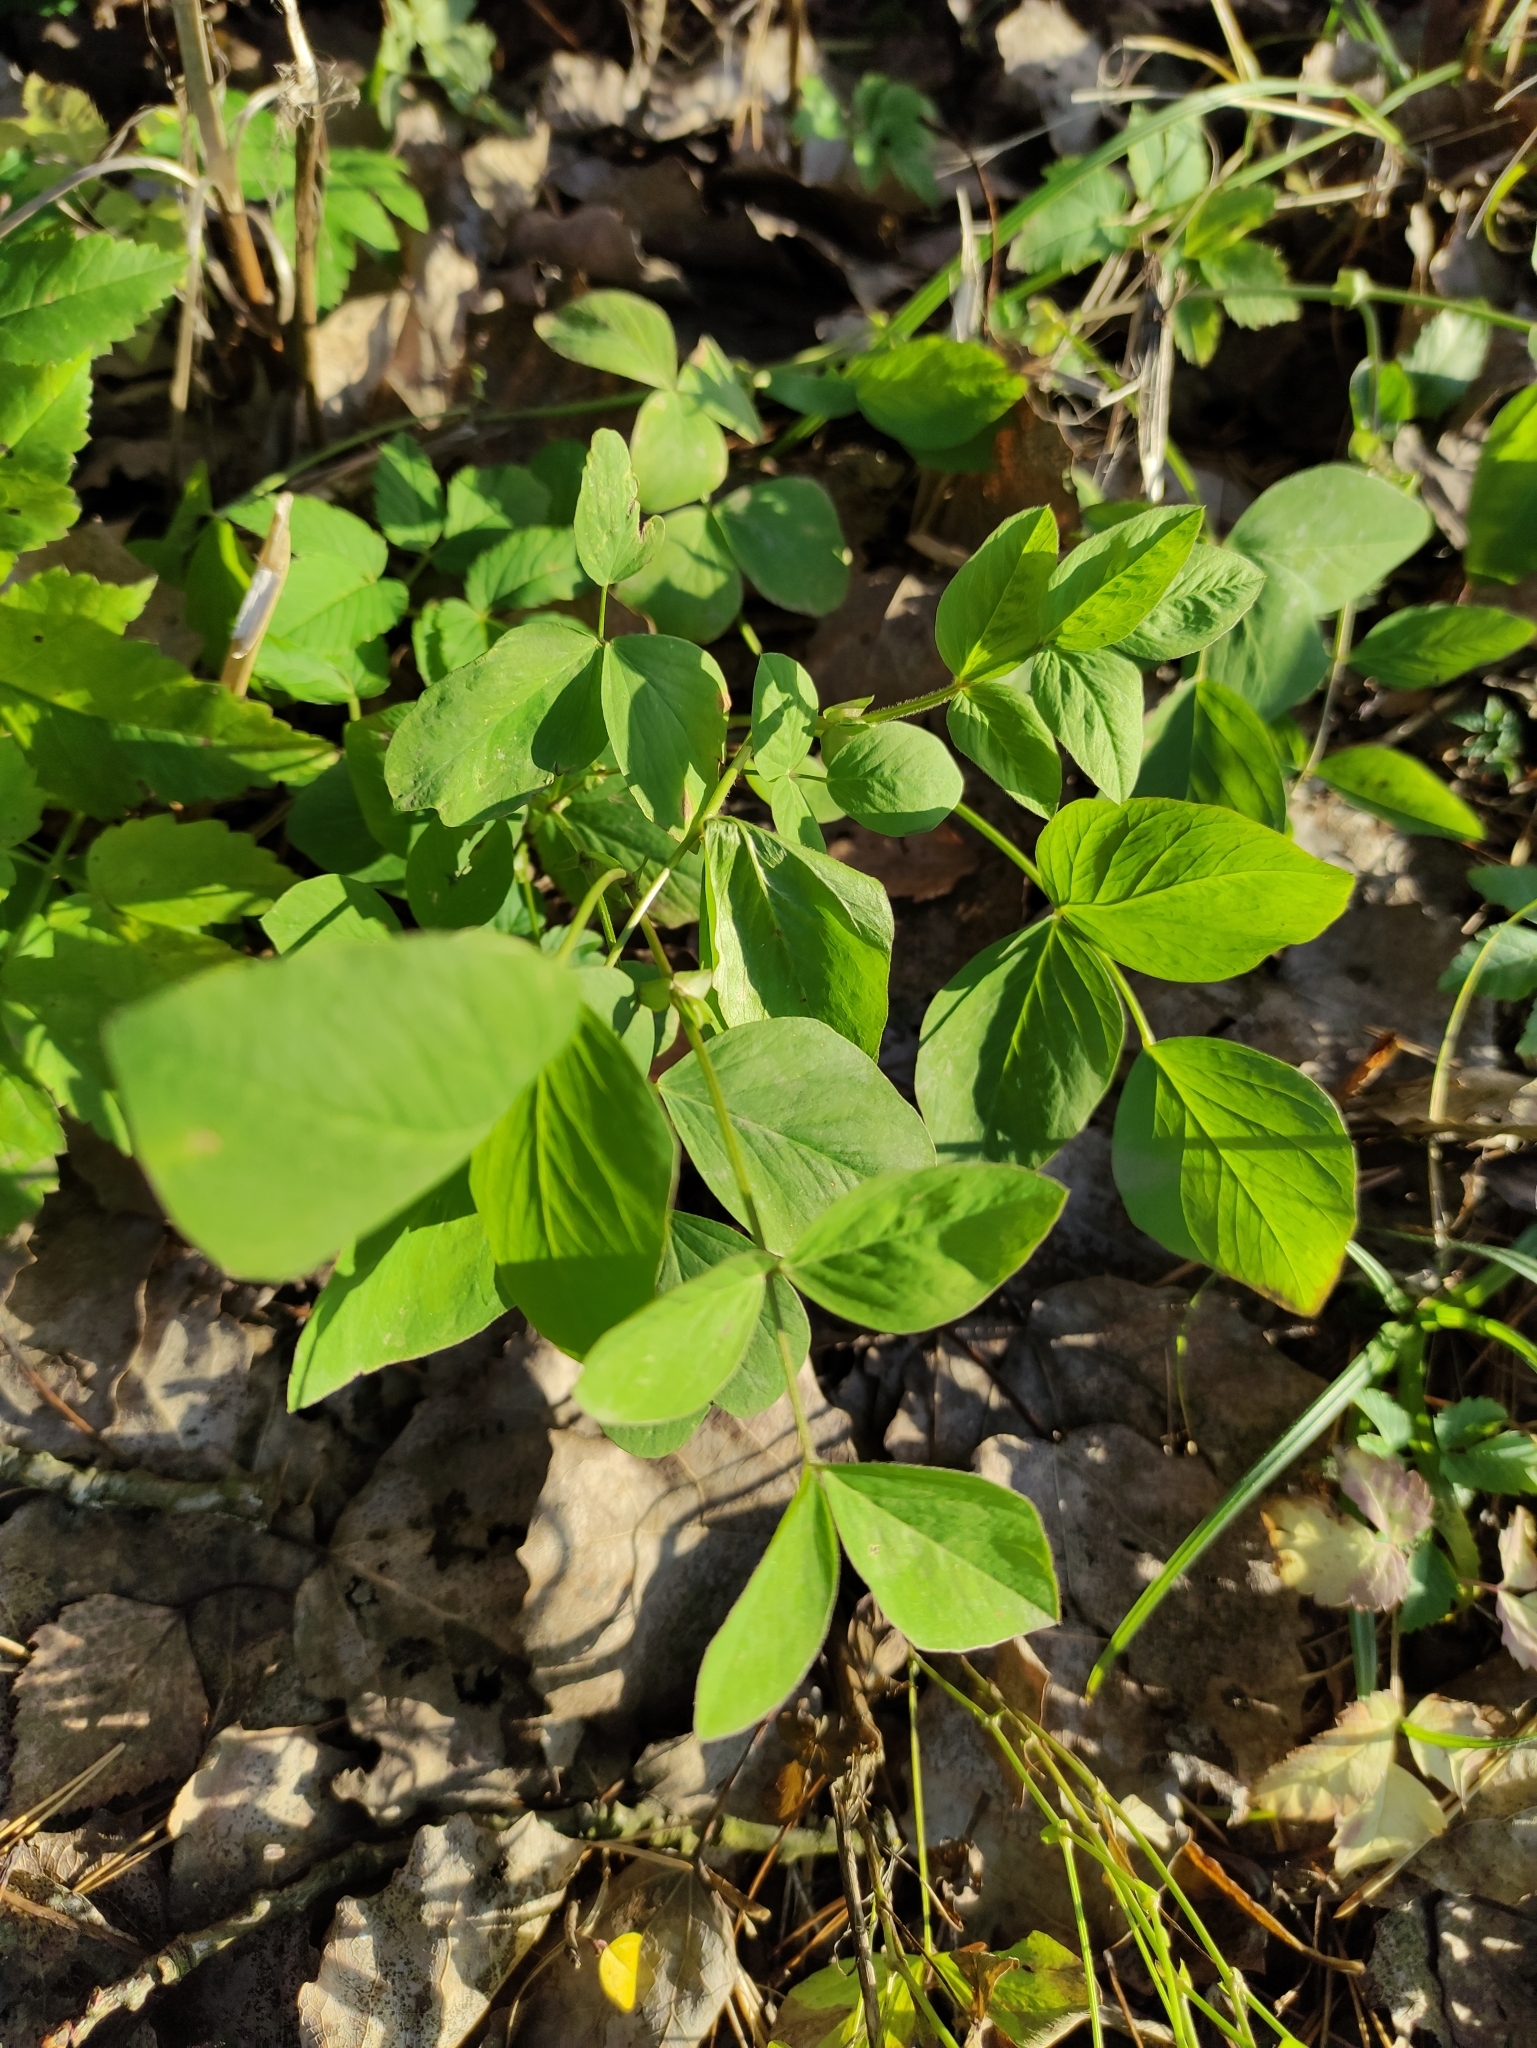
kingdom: Plantae
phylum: Tracheophyta
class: Magnoliopsida
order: Fabales
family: Fabaceae
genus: Galega
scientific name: Galega orientalis
